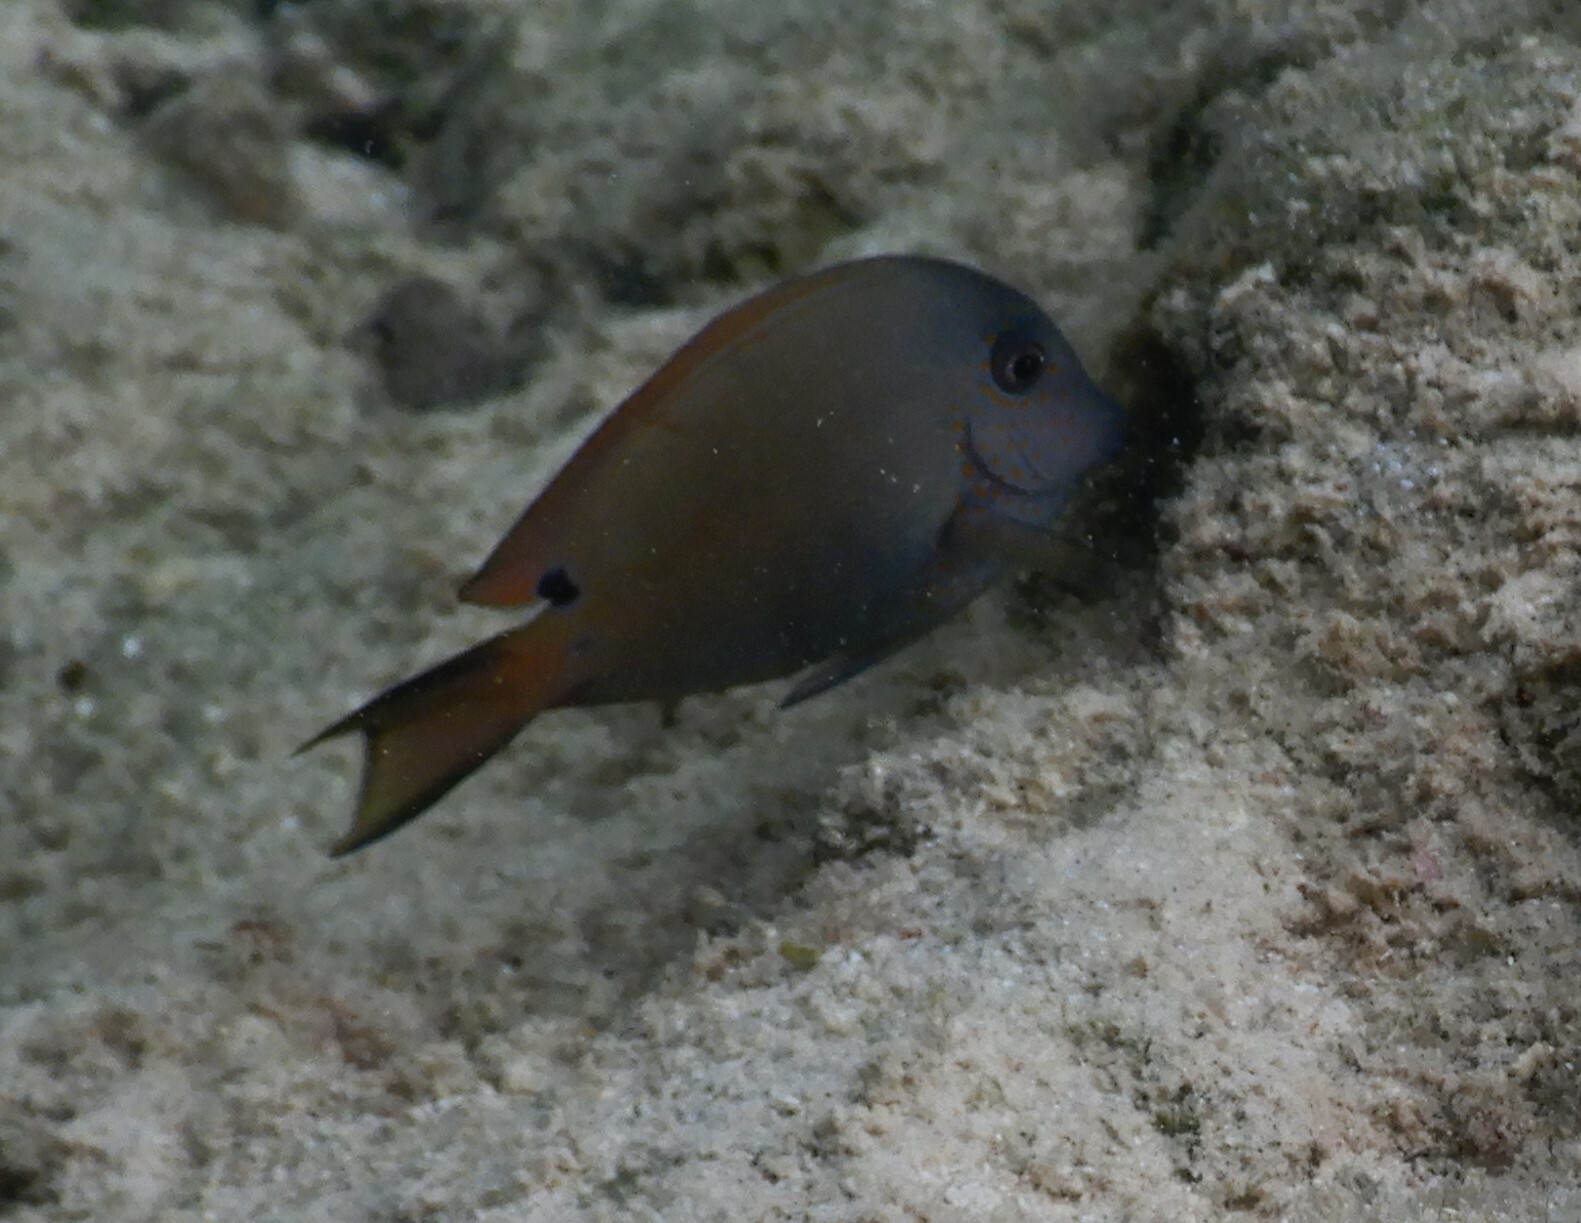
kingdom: Animalia
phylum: Chordata
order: Perciformes
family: Acanthuridae
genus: Acanthurus
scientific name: Acanthurus nigrofuscus
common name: Blackspot surgeonfish
